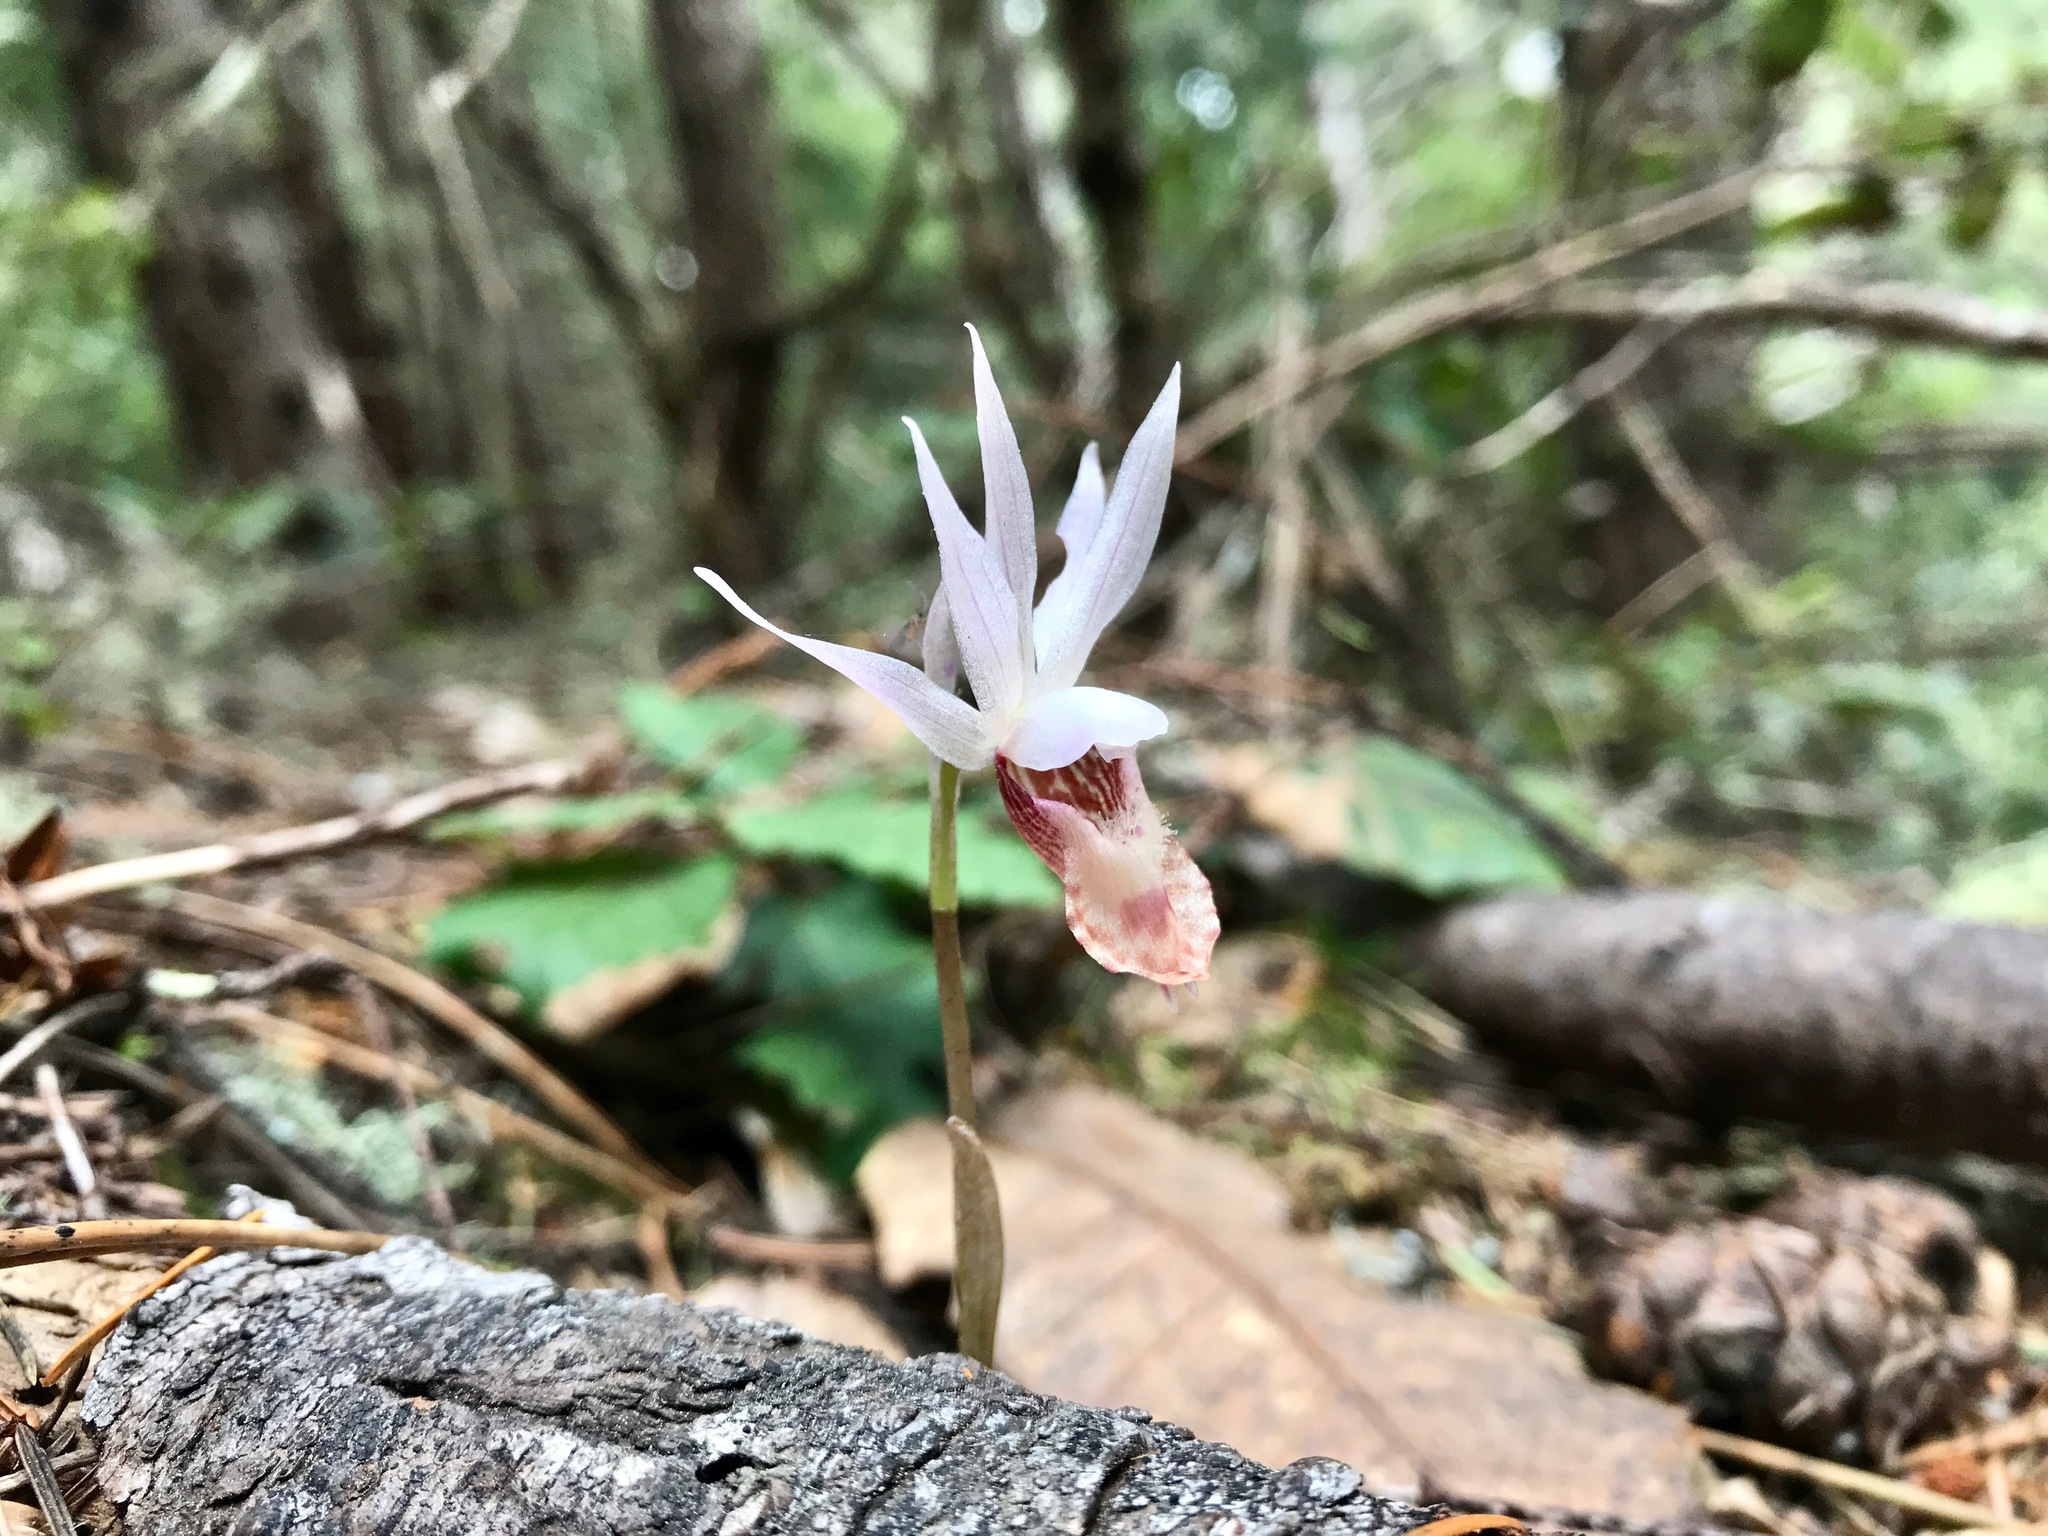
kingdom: Plantae
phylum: Tracheophyta
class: Liliopsida
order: Asparagales
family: Orchidaceae
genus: Calypso
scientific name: Calypso bulbosa
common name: Calypso
